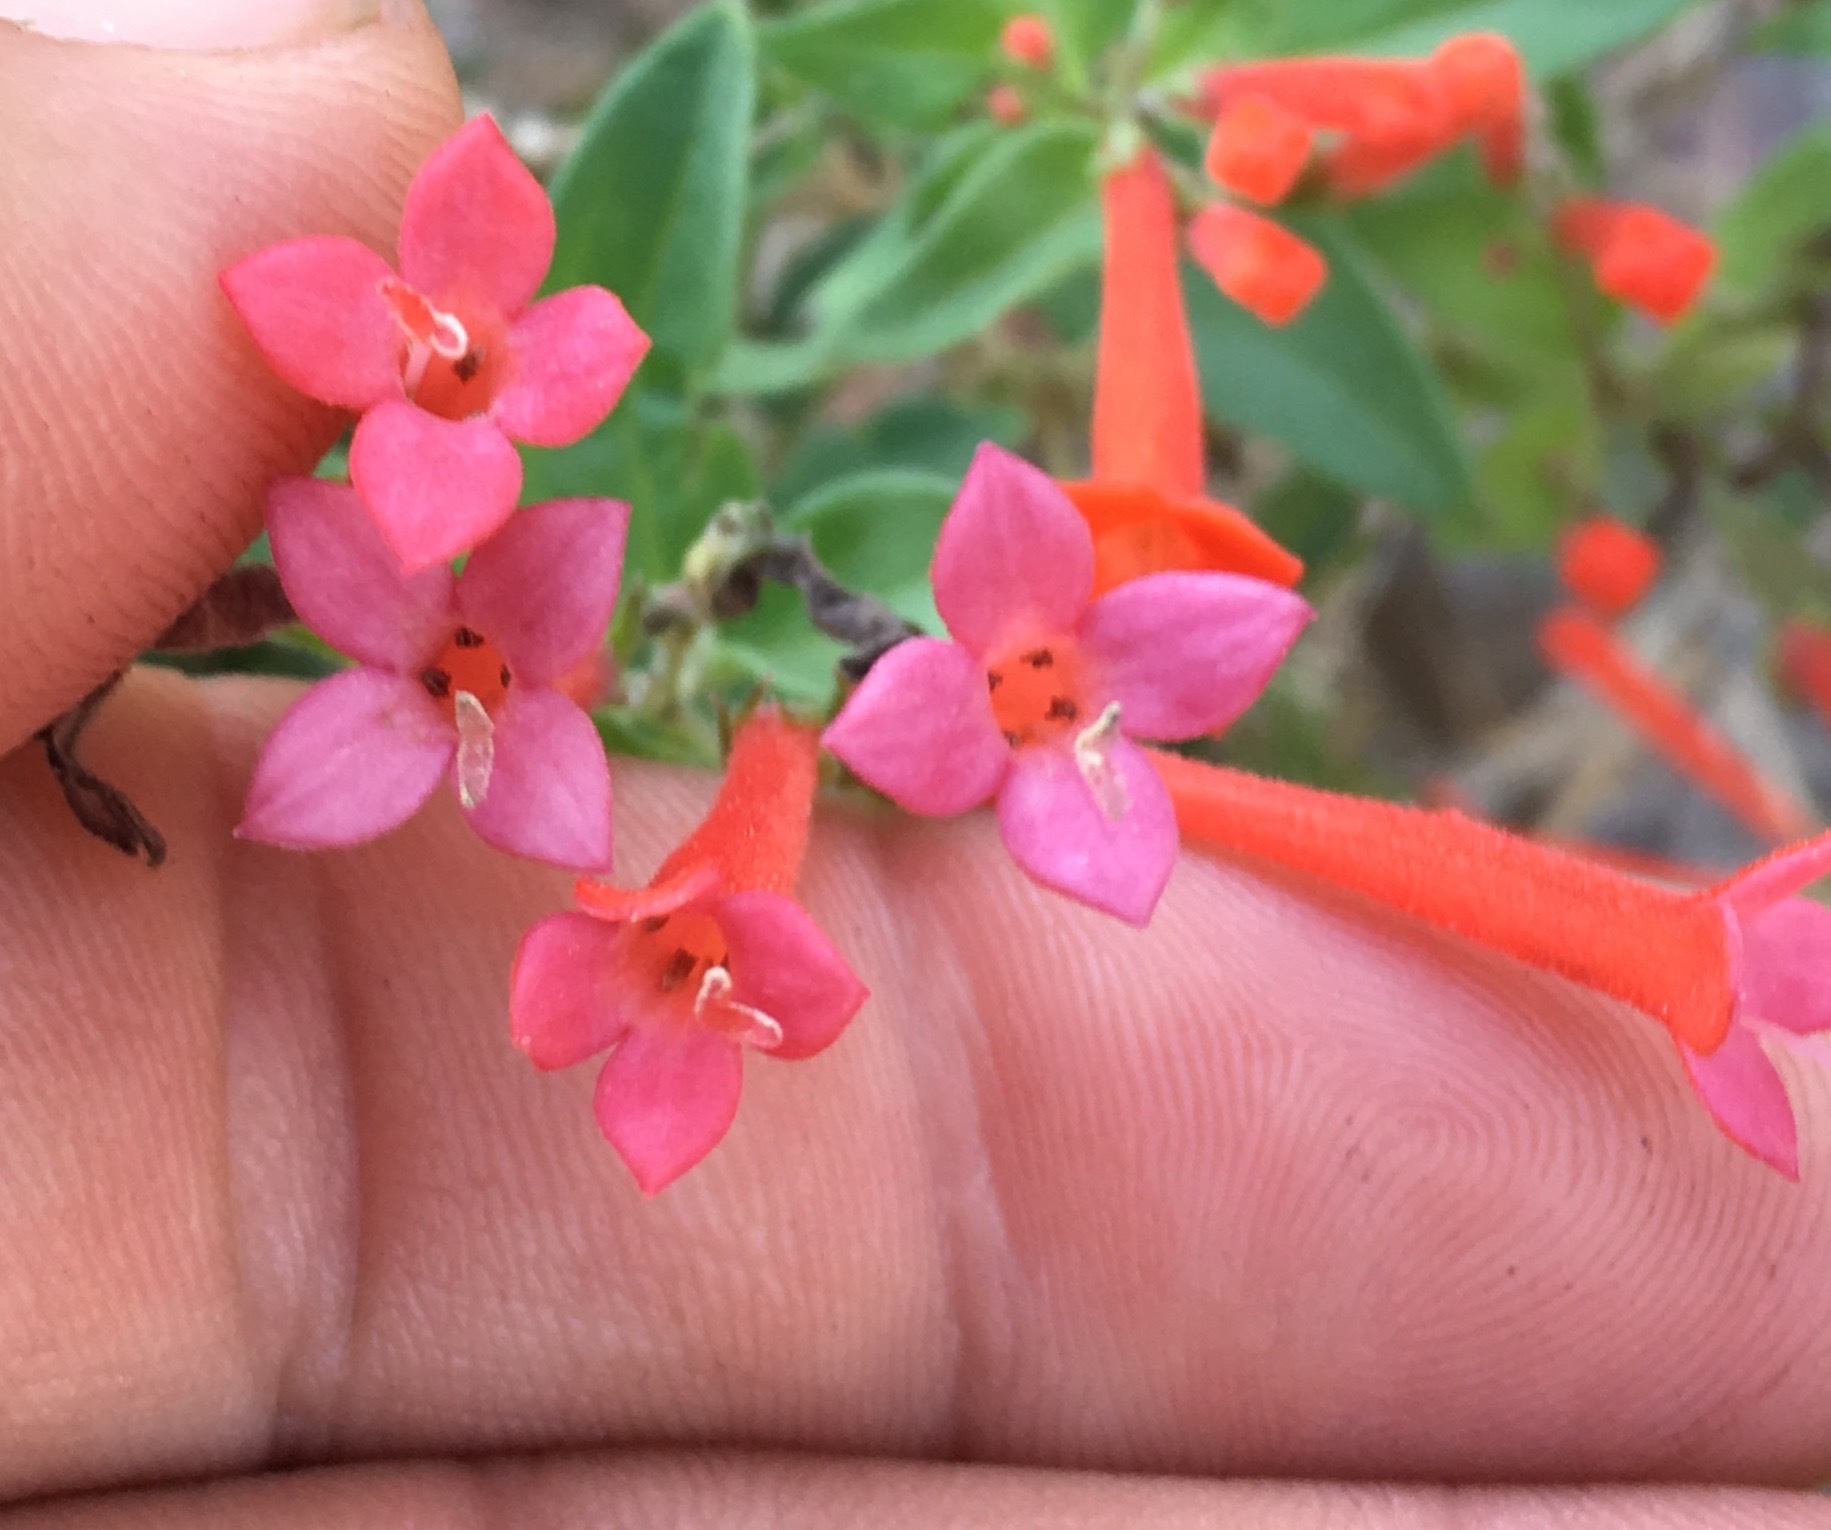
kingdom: Plantae
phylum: Tracheophyta
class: Magnoliopsida
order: Gentianales
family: Rubiaceae
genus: Bouvardia
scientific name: Bouvardia ternifolia
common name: Scarlet bouvardia
